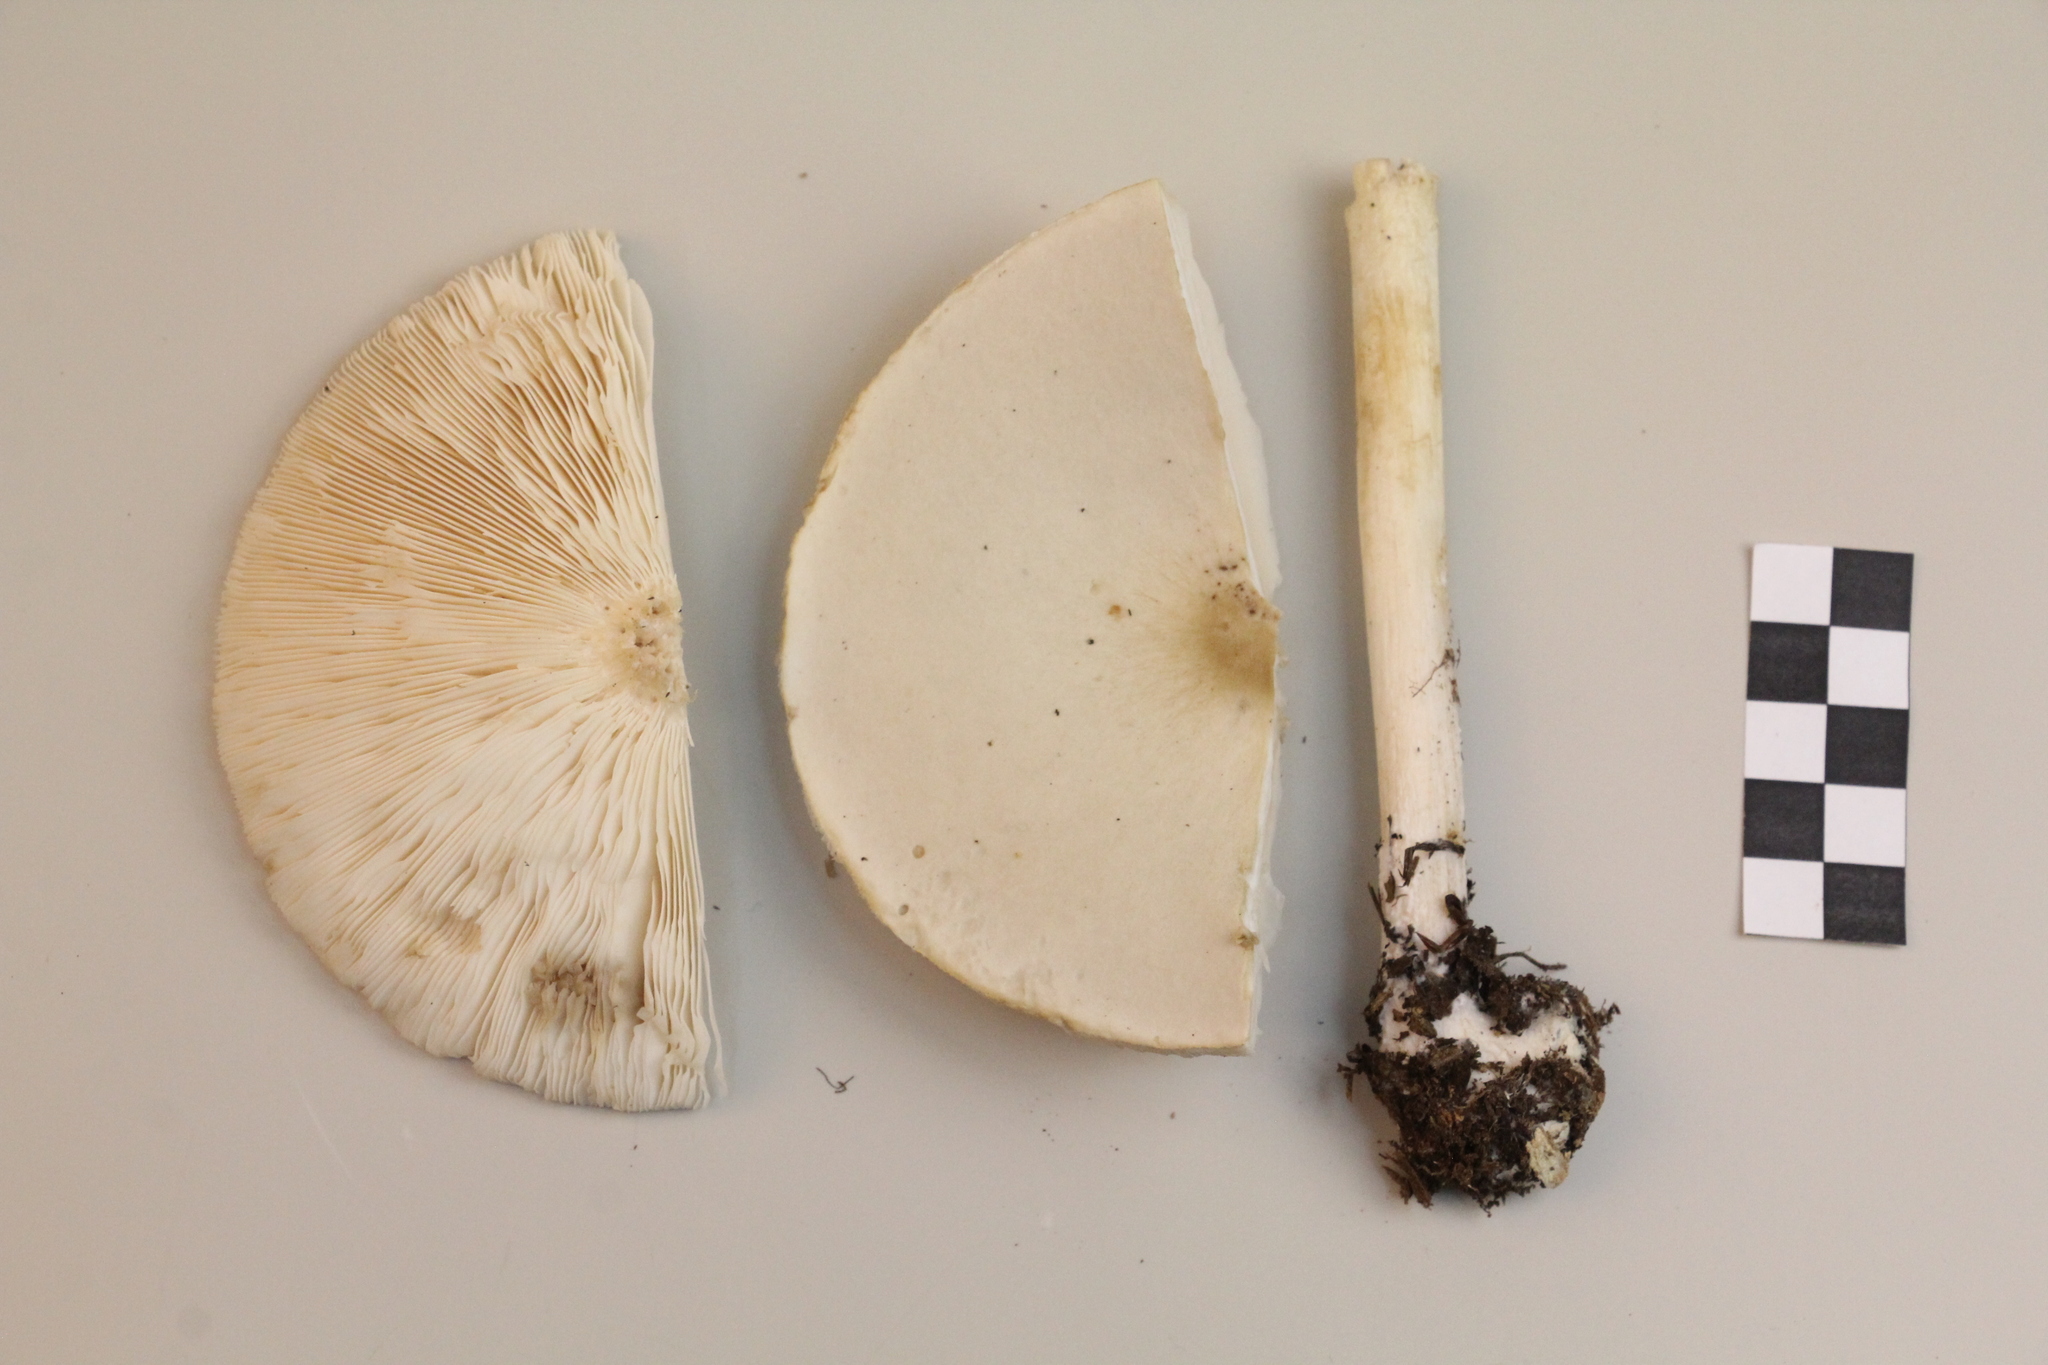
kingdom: Fungi
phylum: Basidiomycota
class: Agaricomycetes
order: Agaricales
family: Tricholomataceae
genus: Melanoleuca
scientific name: Melanoleuca strictipes
